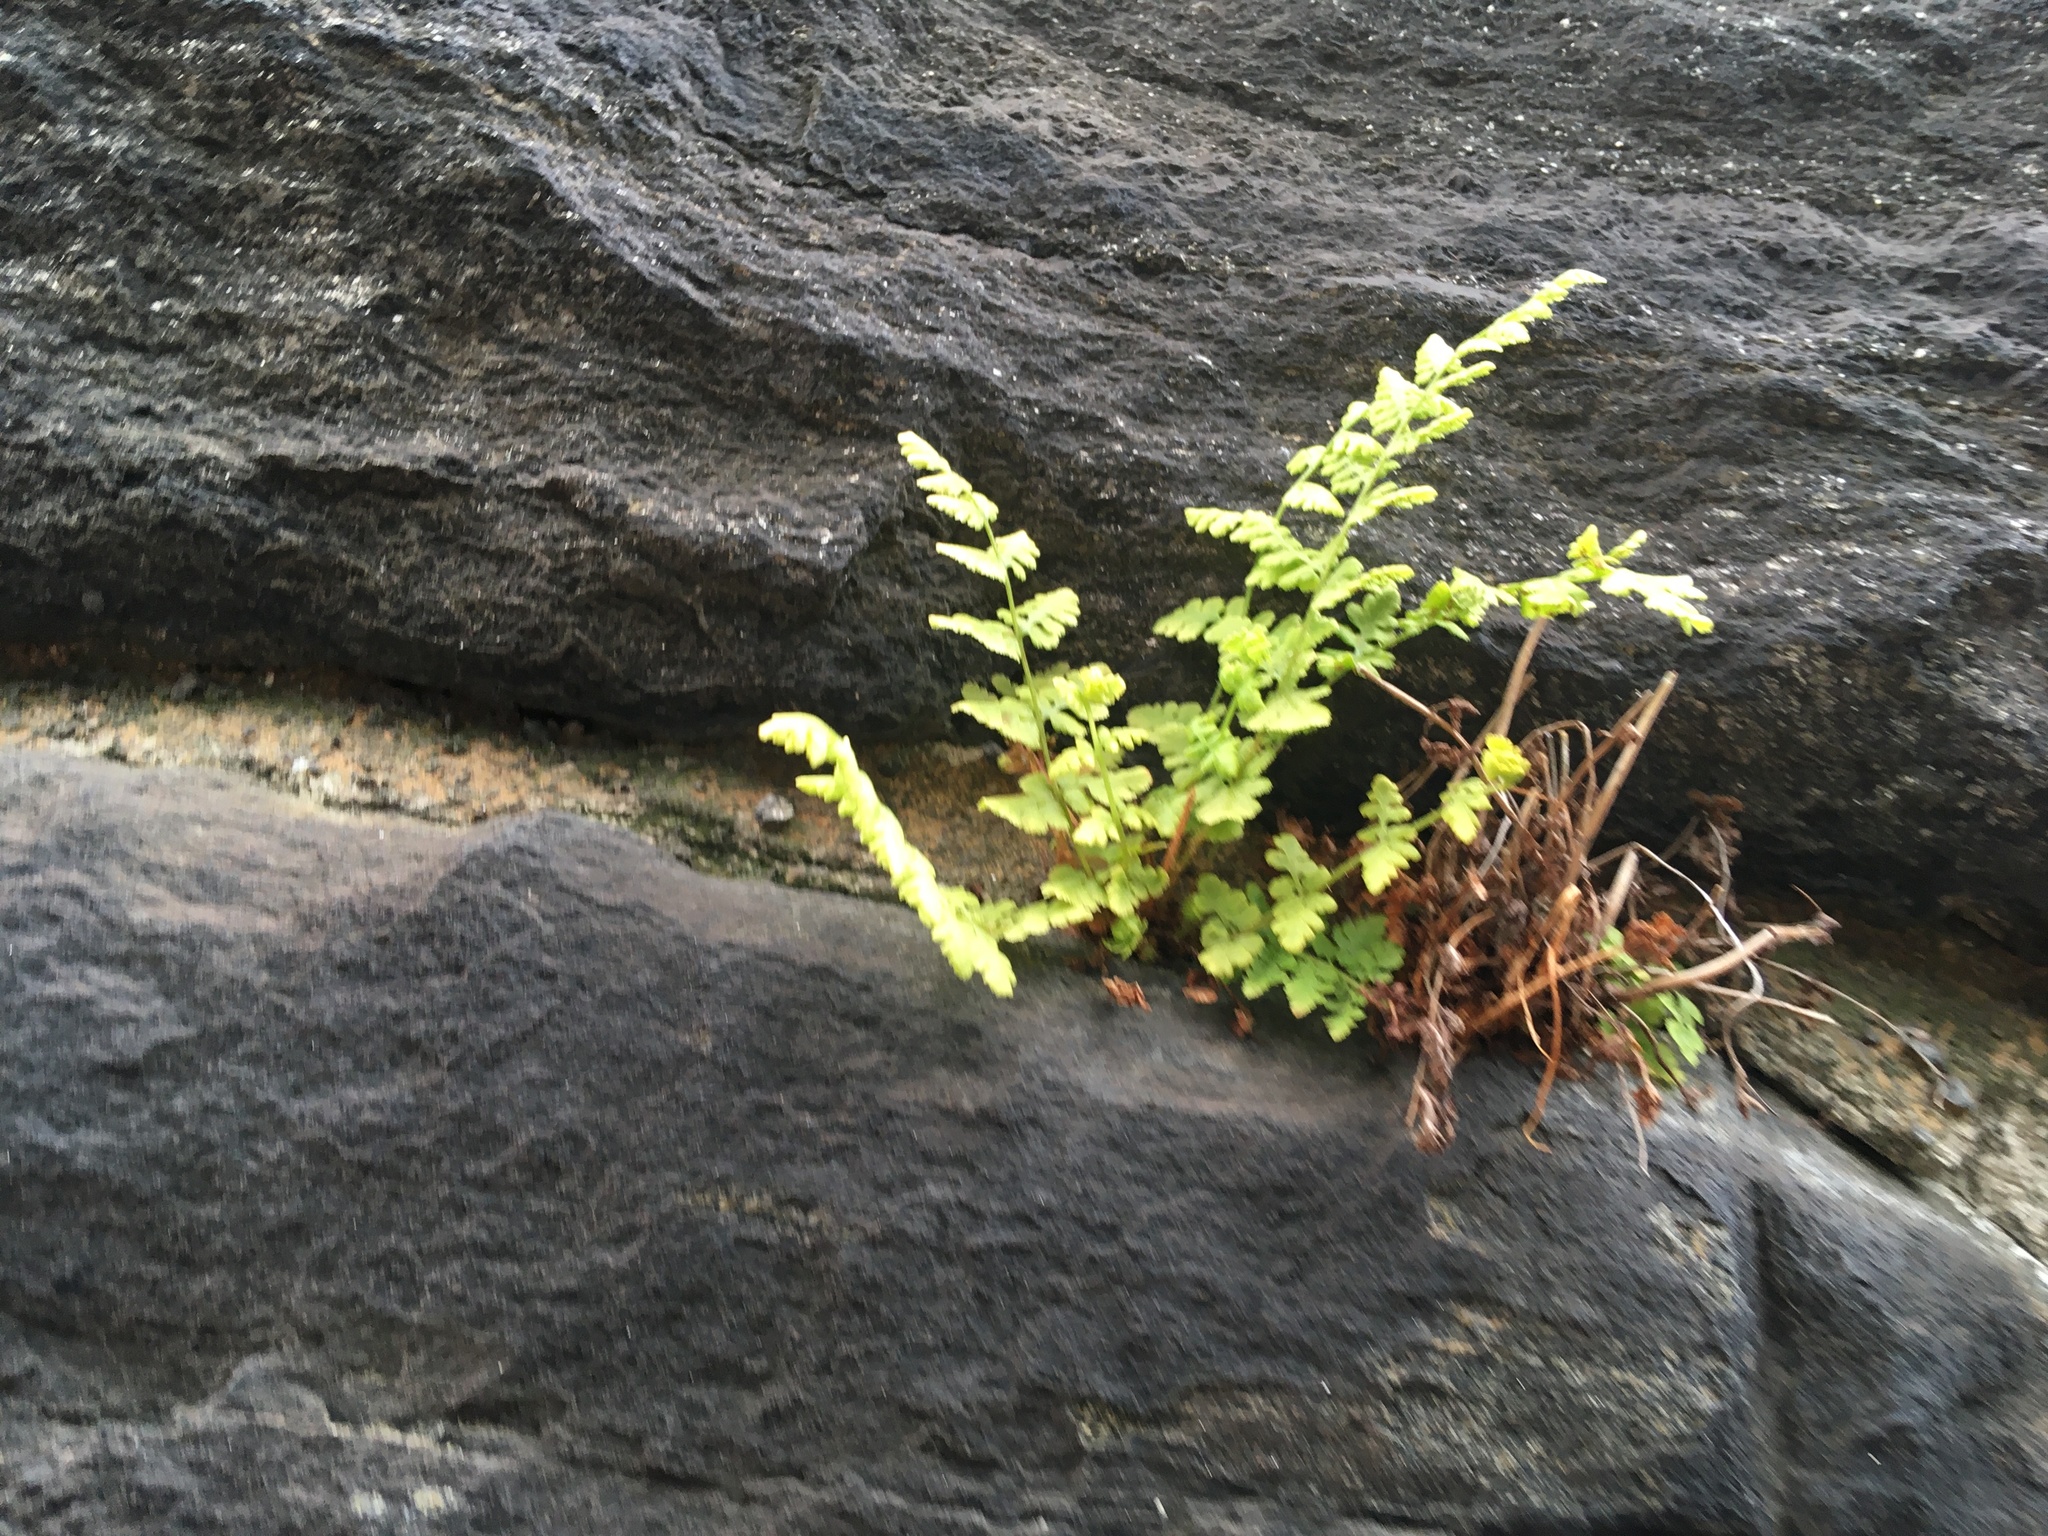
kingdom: Plantae
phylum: Tracheophyta
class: Polypodiopsida
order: Polypodiales
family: Woodsiaceae
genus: Physematium
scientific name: Physematium obtusum
